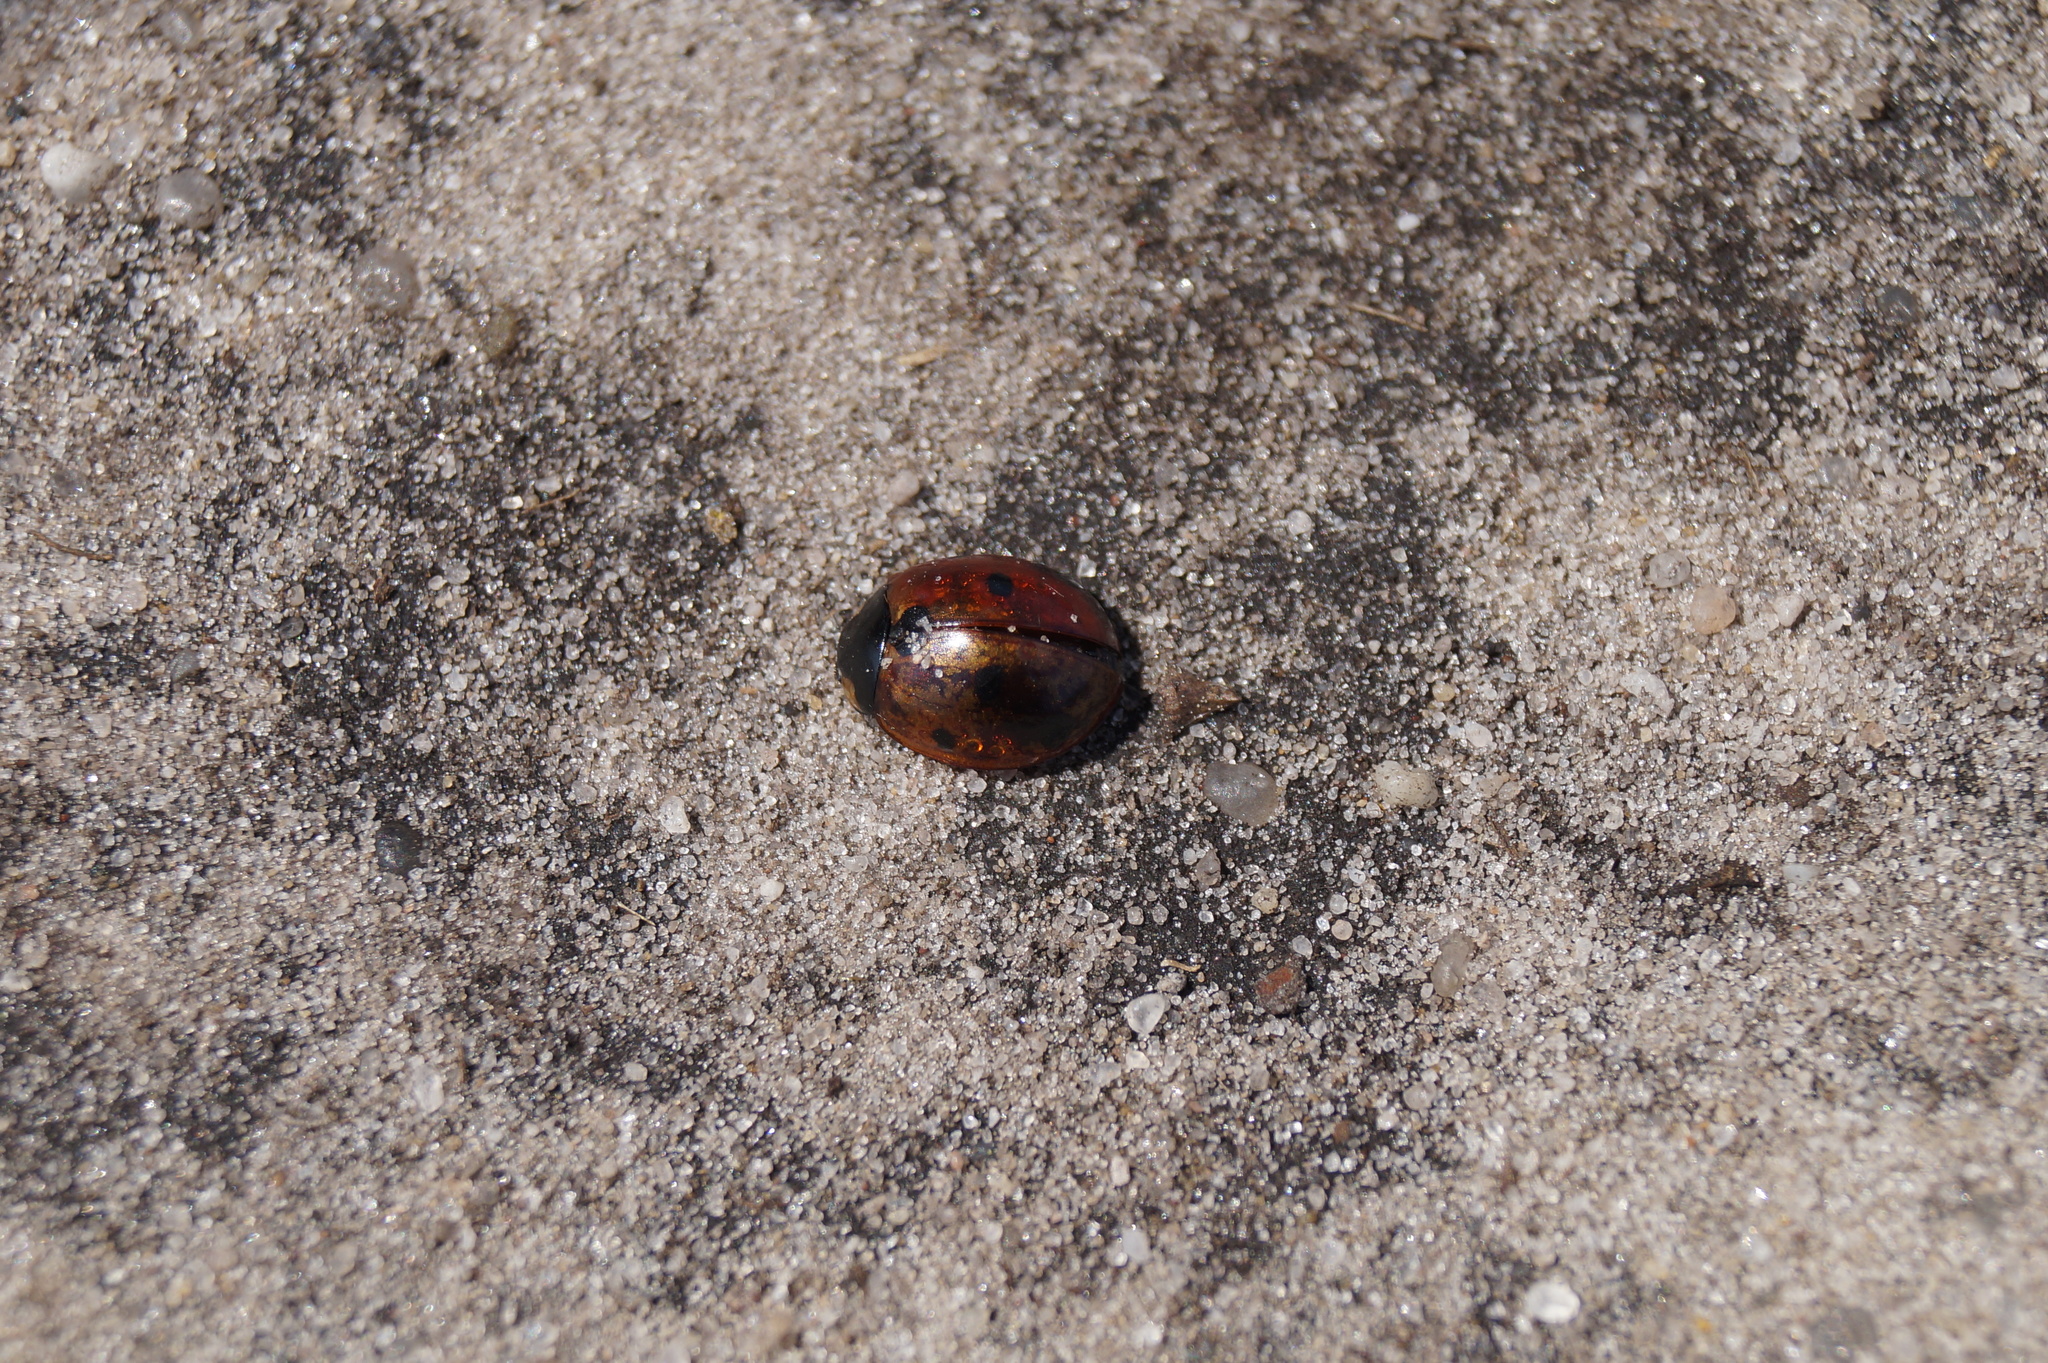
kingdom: Animalia
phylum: Arthropoda
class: Insecta
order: Coleoptera
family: Coccinellidae
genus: Coccinella
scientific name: Coccinella septempunctata
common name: Sevenspotted lady beetle
